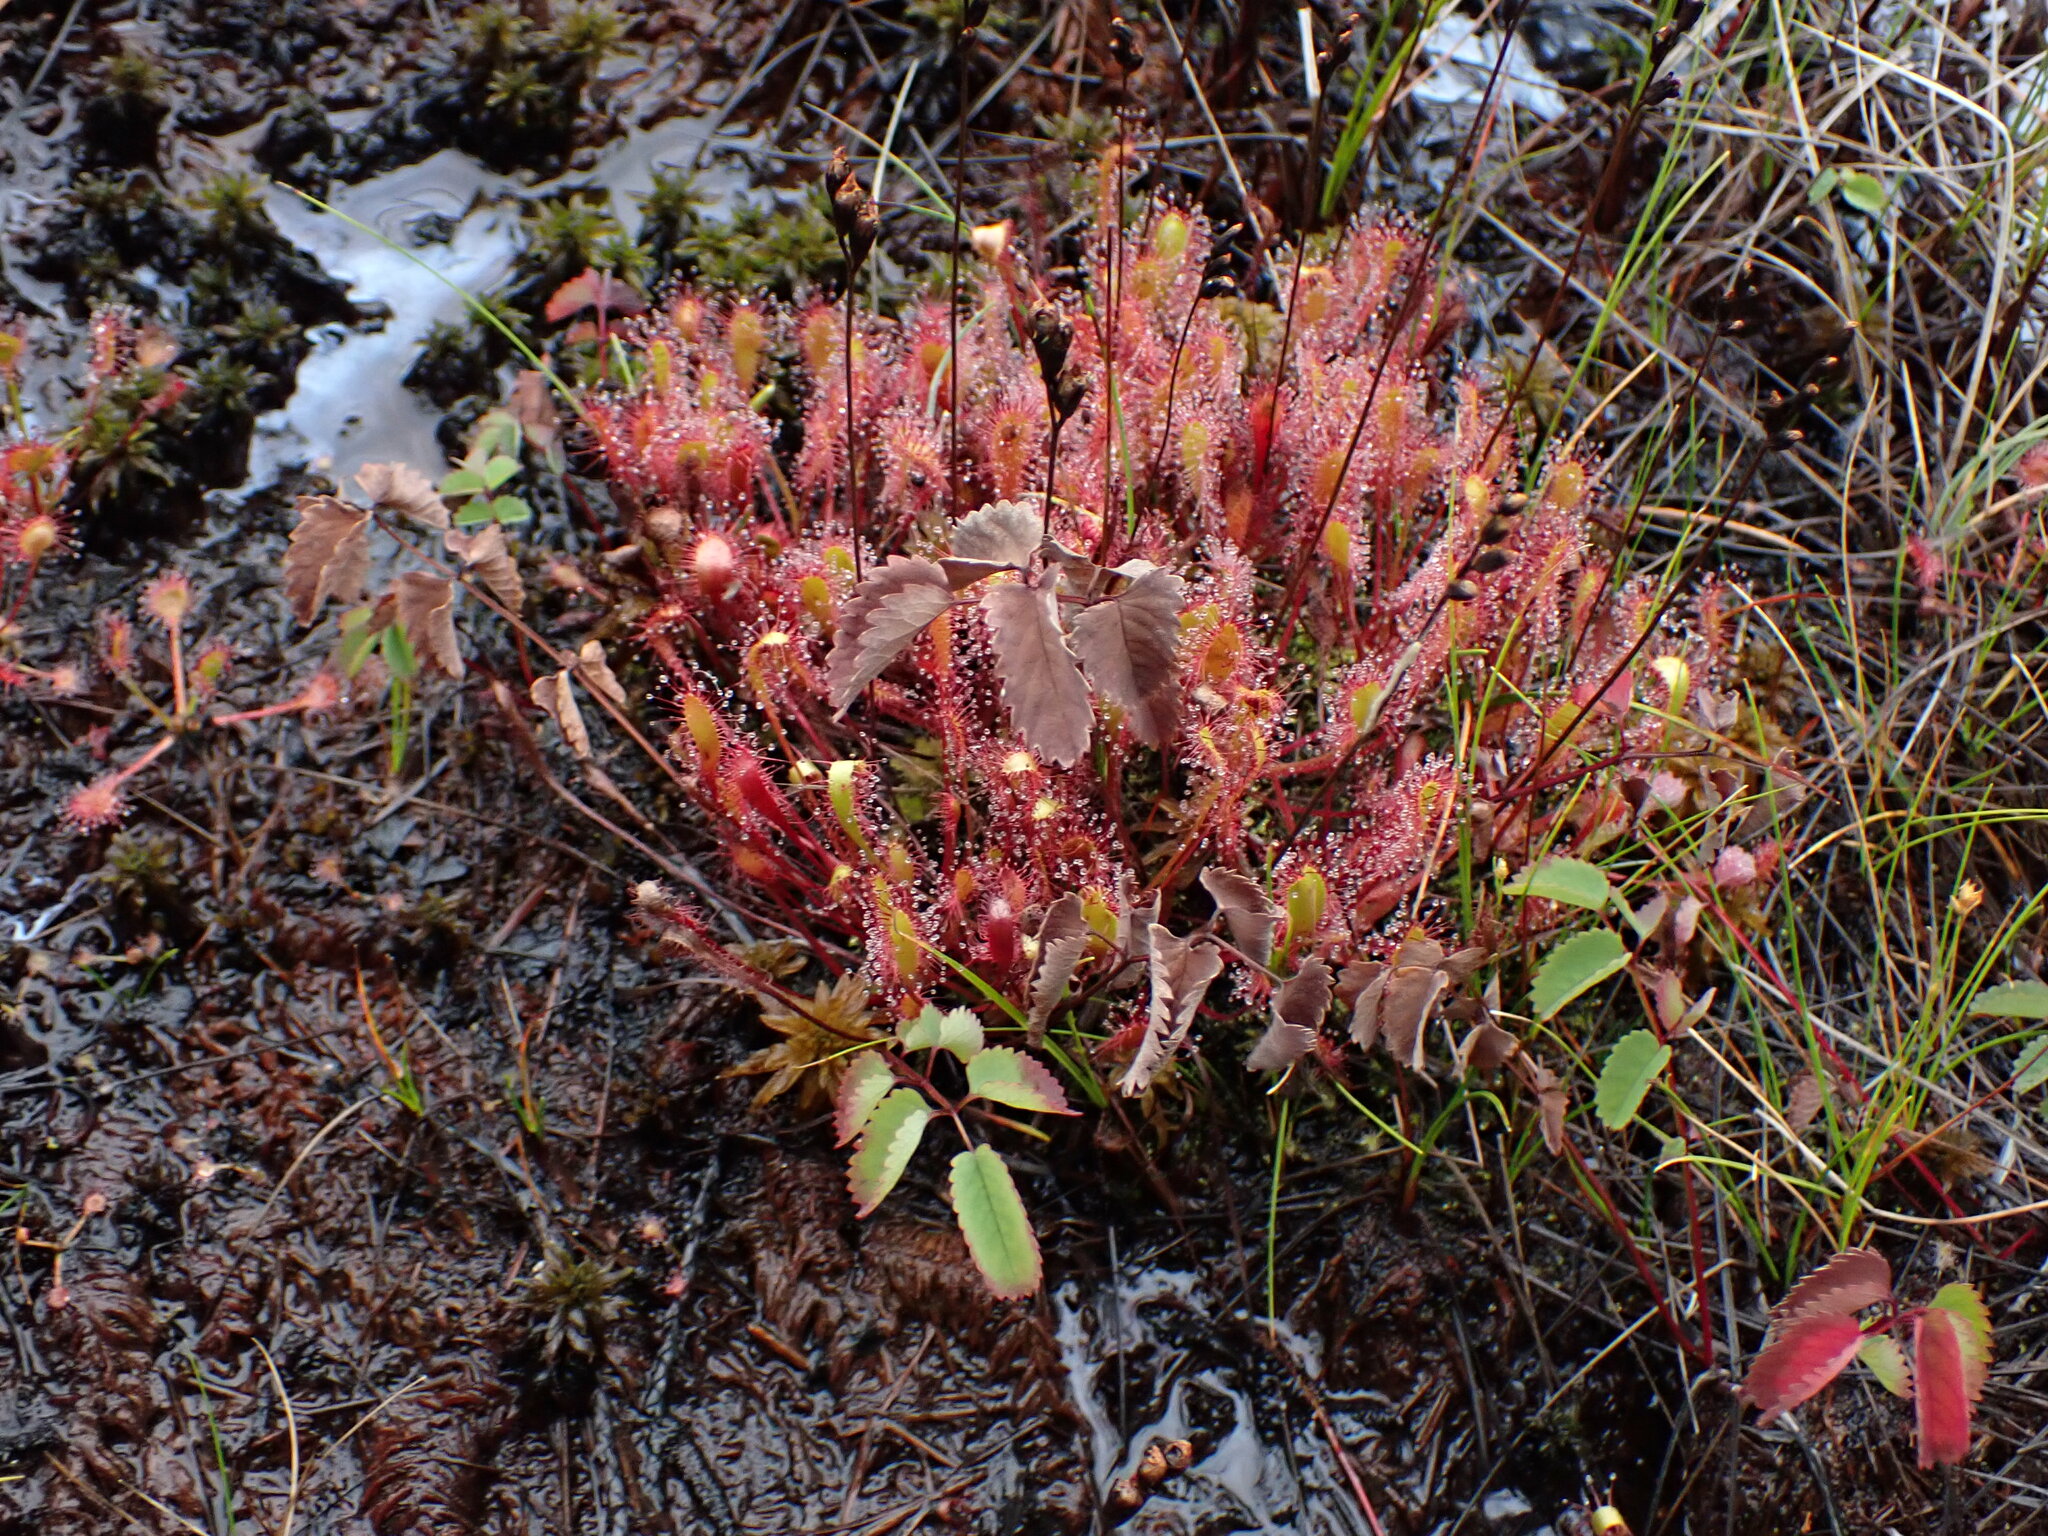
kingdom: Plantae
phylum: Tracheophyta
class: Magnoliopsida
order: Caryophyllales
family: Droseraceae
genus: Drosera
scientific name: Drosera anglica
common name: Great sundew
